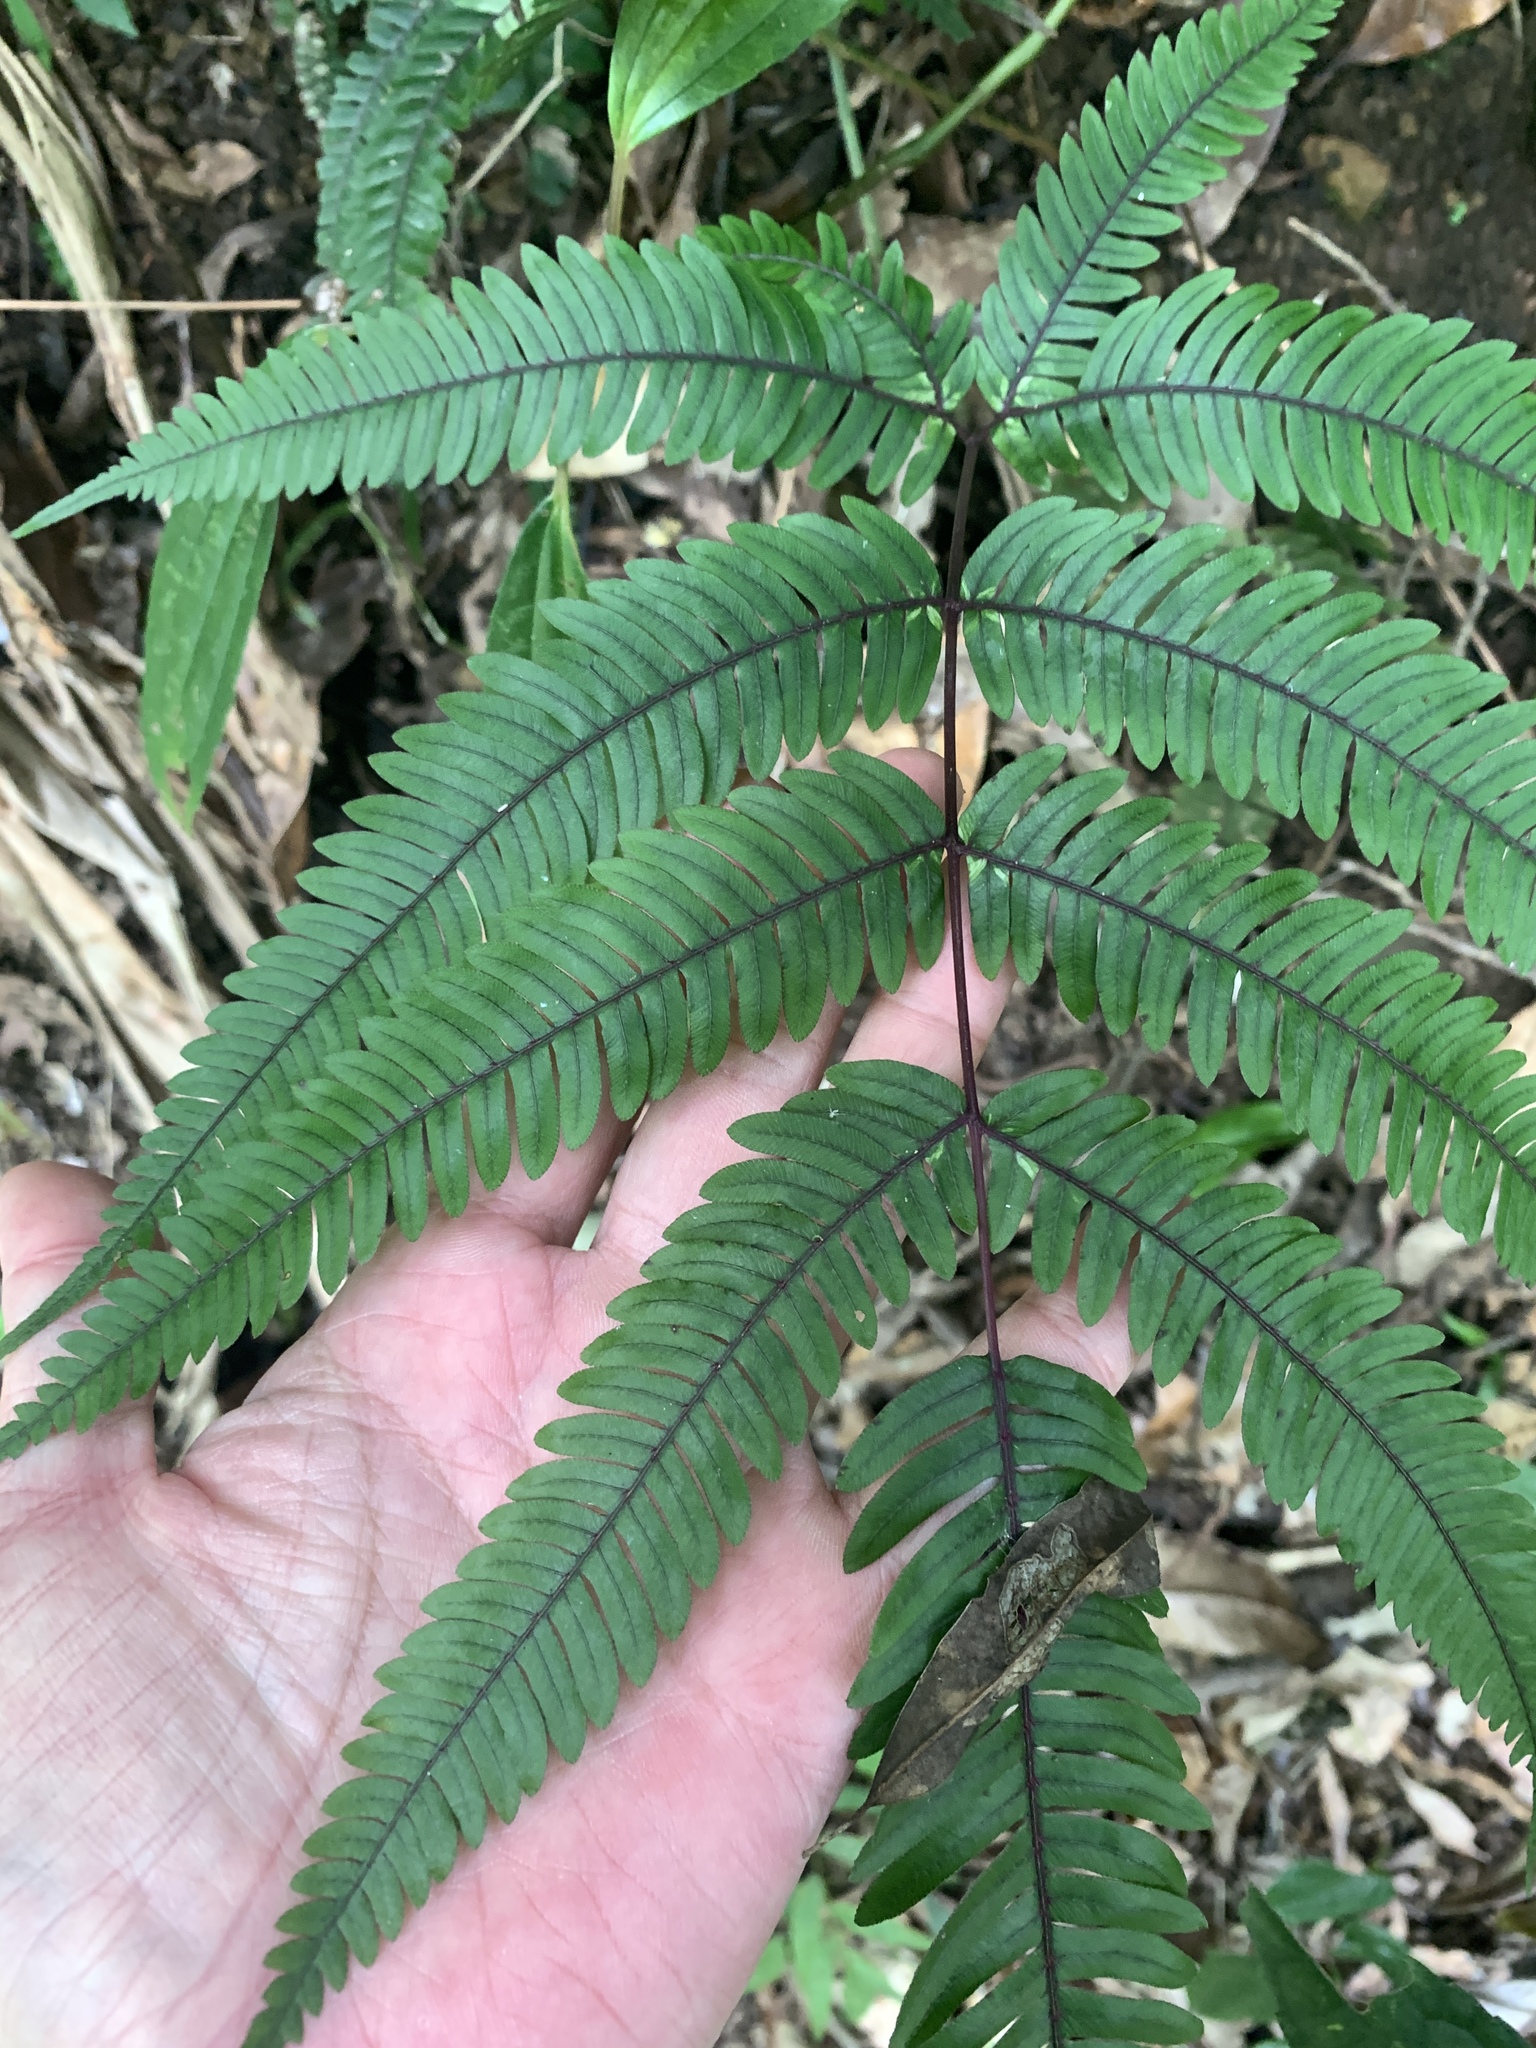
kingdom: Plantae
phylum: Tracheophyta
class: Polypodiopsida
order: Polypodiales
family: Pteridaceae
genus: Pteris
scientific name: Pteris normalis
